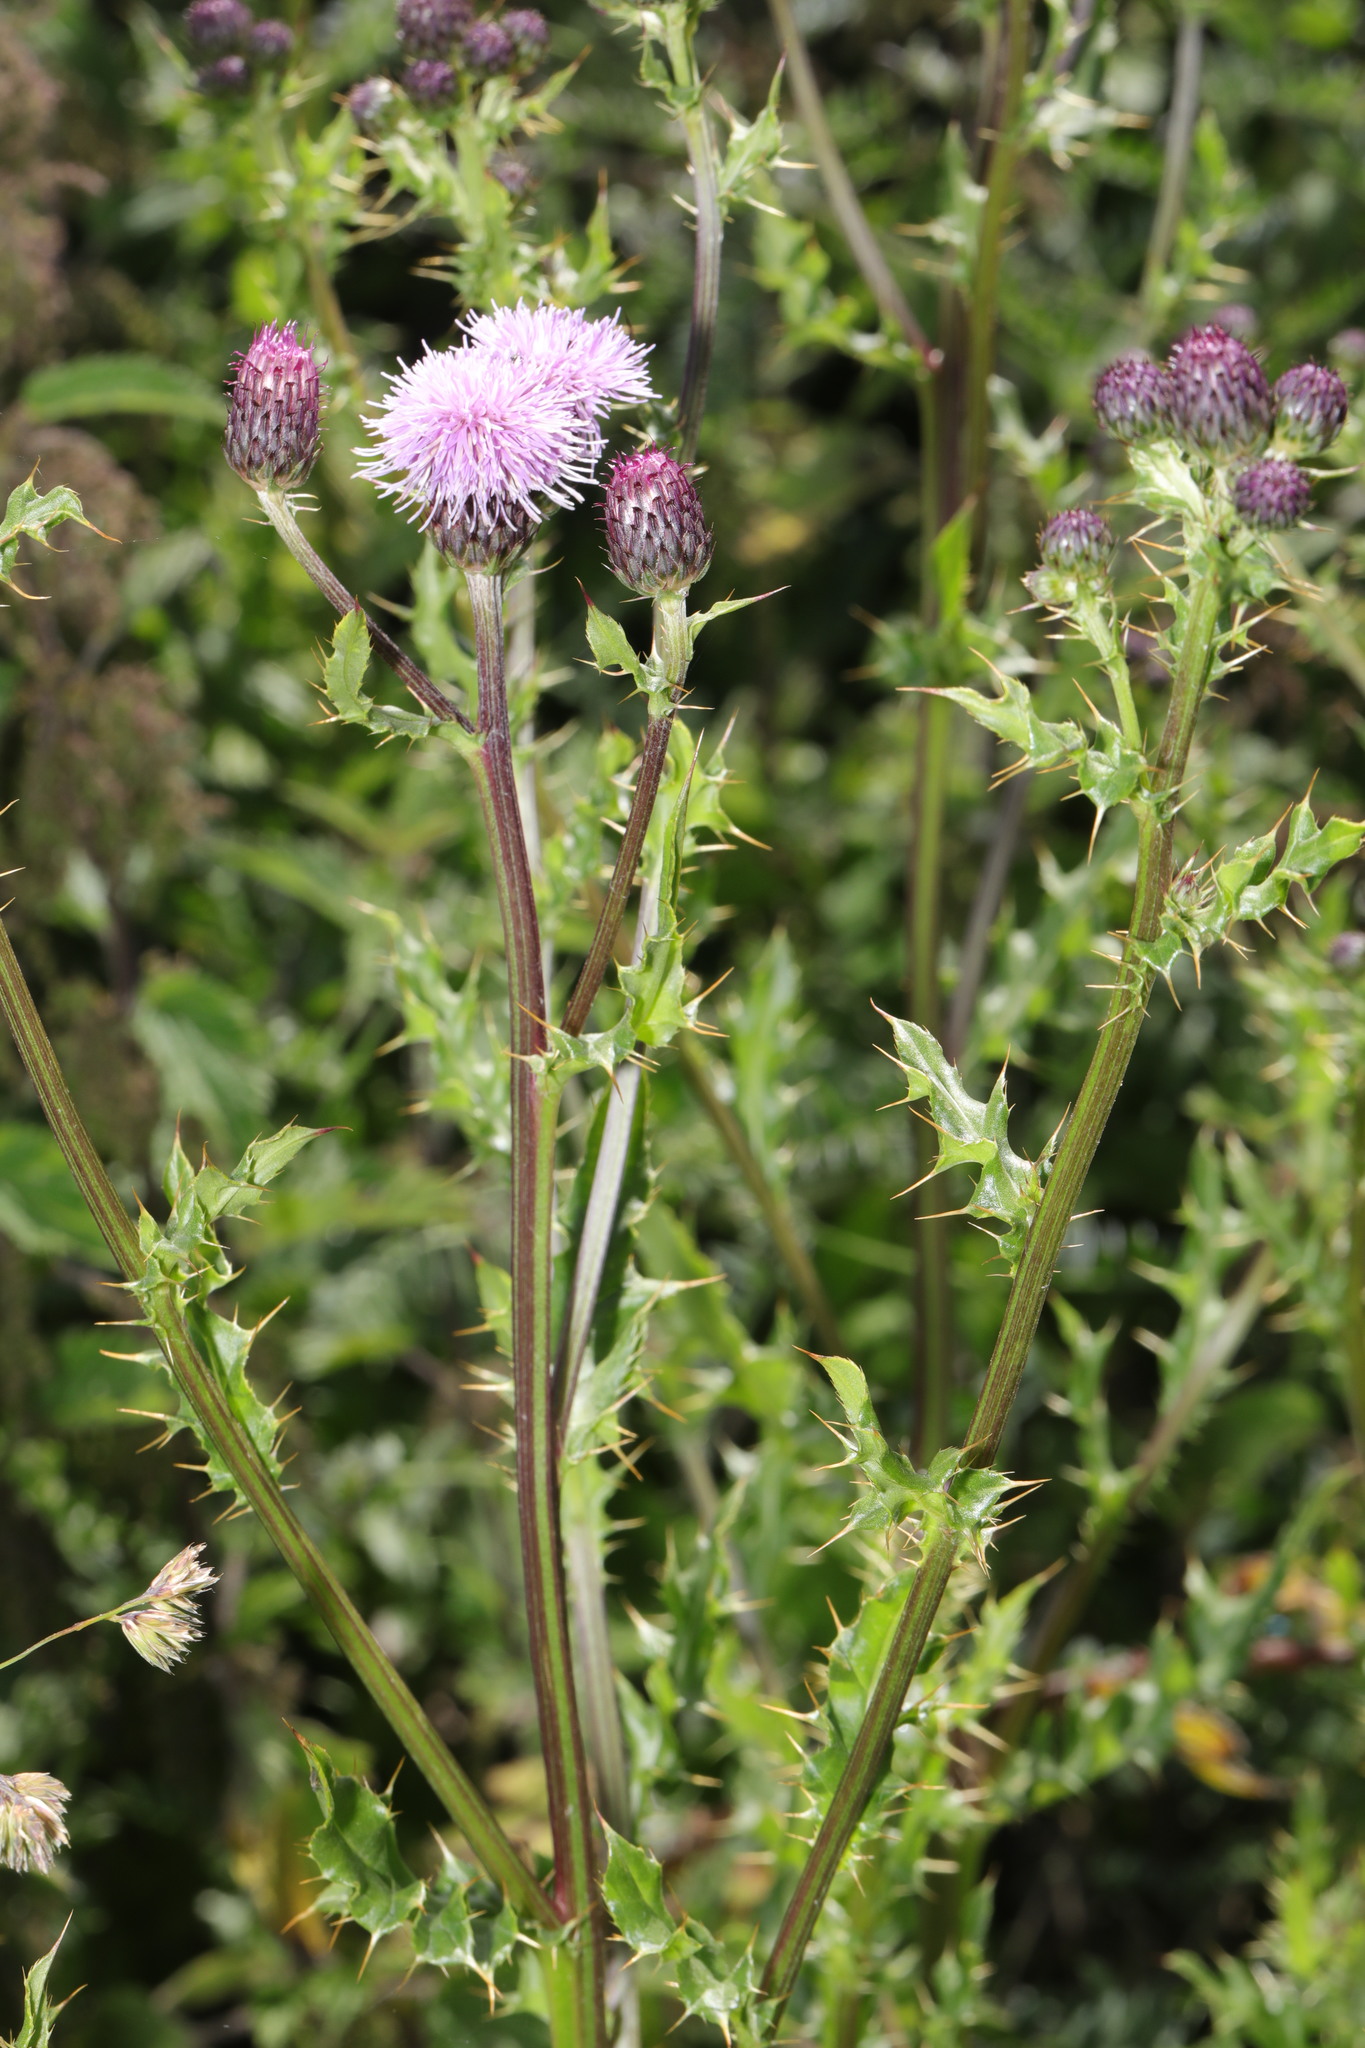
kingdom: Plantae
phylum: Tracheophyta
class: Magnoliopsida
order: Asterales
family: Asteraceae
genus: Cirsium
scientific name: Cirsium arvense
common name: Creeping thistle
